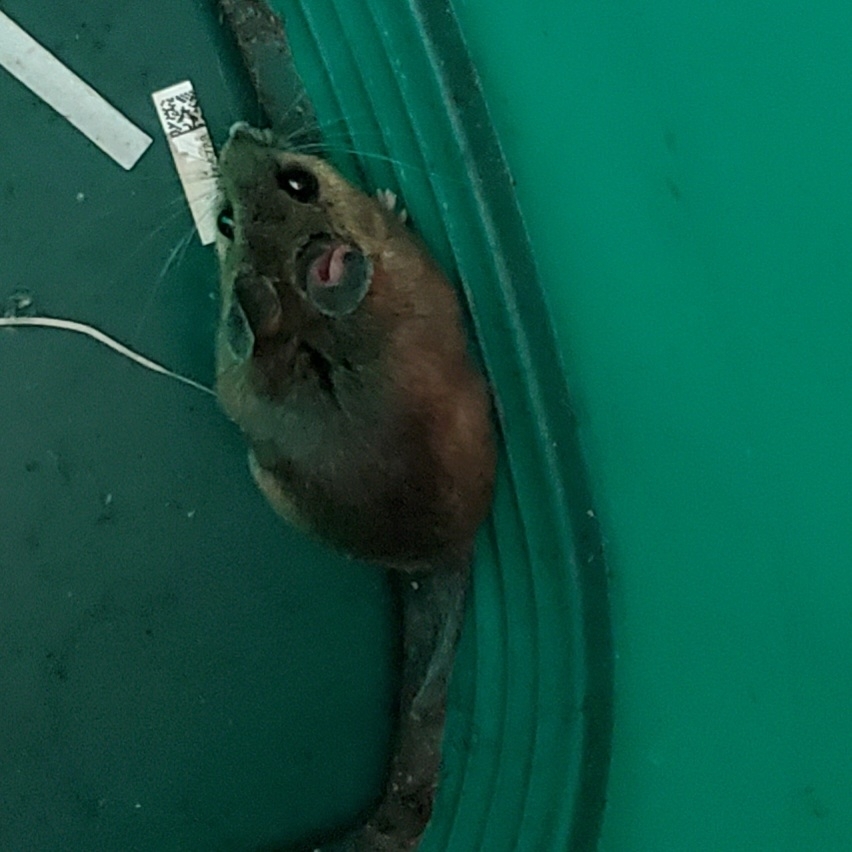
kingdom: Animalia
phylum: Chordata
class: Mammalia
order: Rodentia
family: Cricetidae
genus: Peromyscus
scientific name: Peromyscus leucopus
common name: White-footed deermouse
